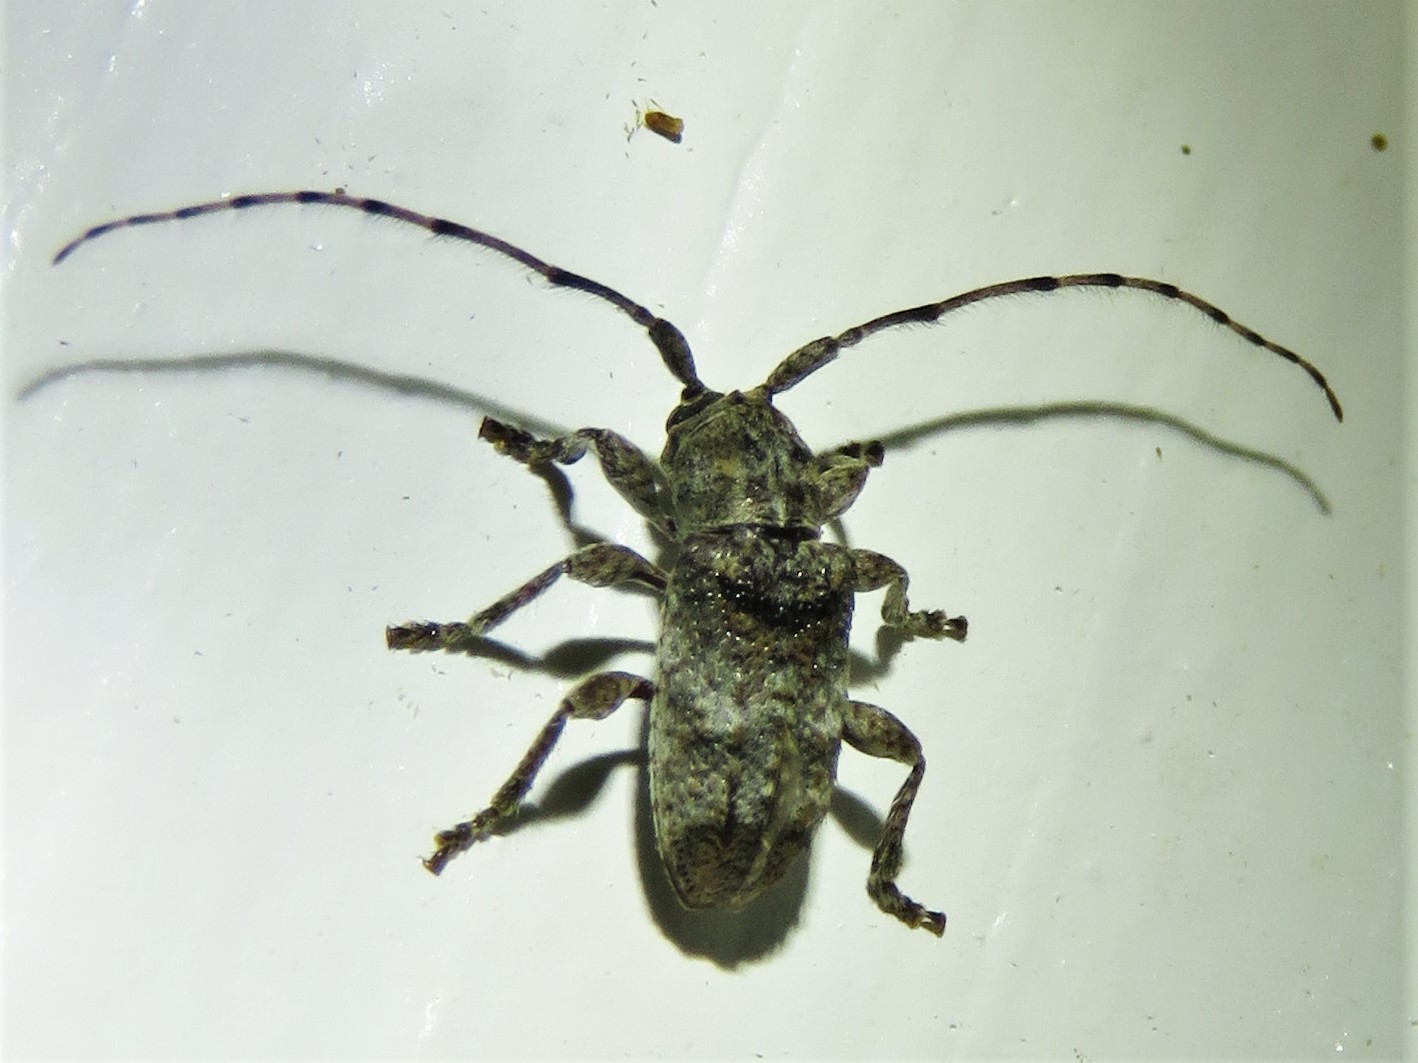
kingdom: Animalia
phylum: Arthropoda
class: Insecta
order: Coleoptera
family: Cerambycidae
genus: Ecyrus
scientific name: Ecyrus dasycerus
